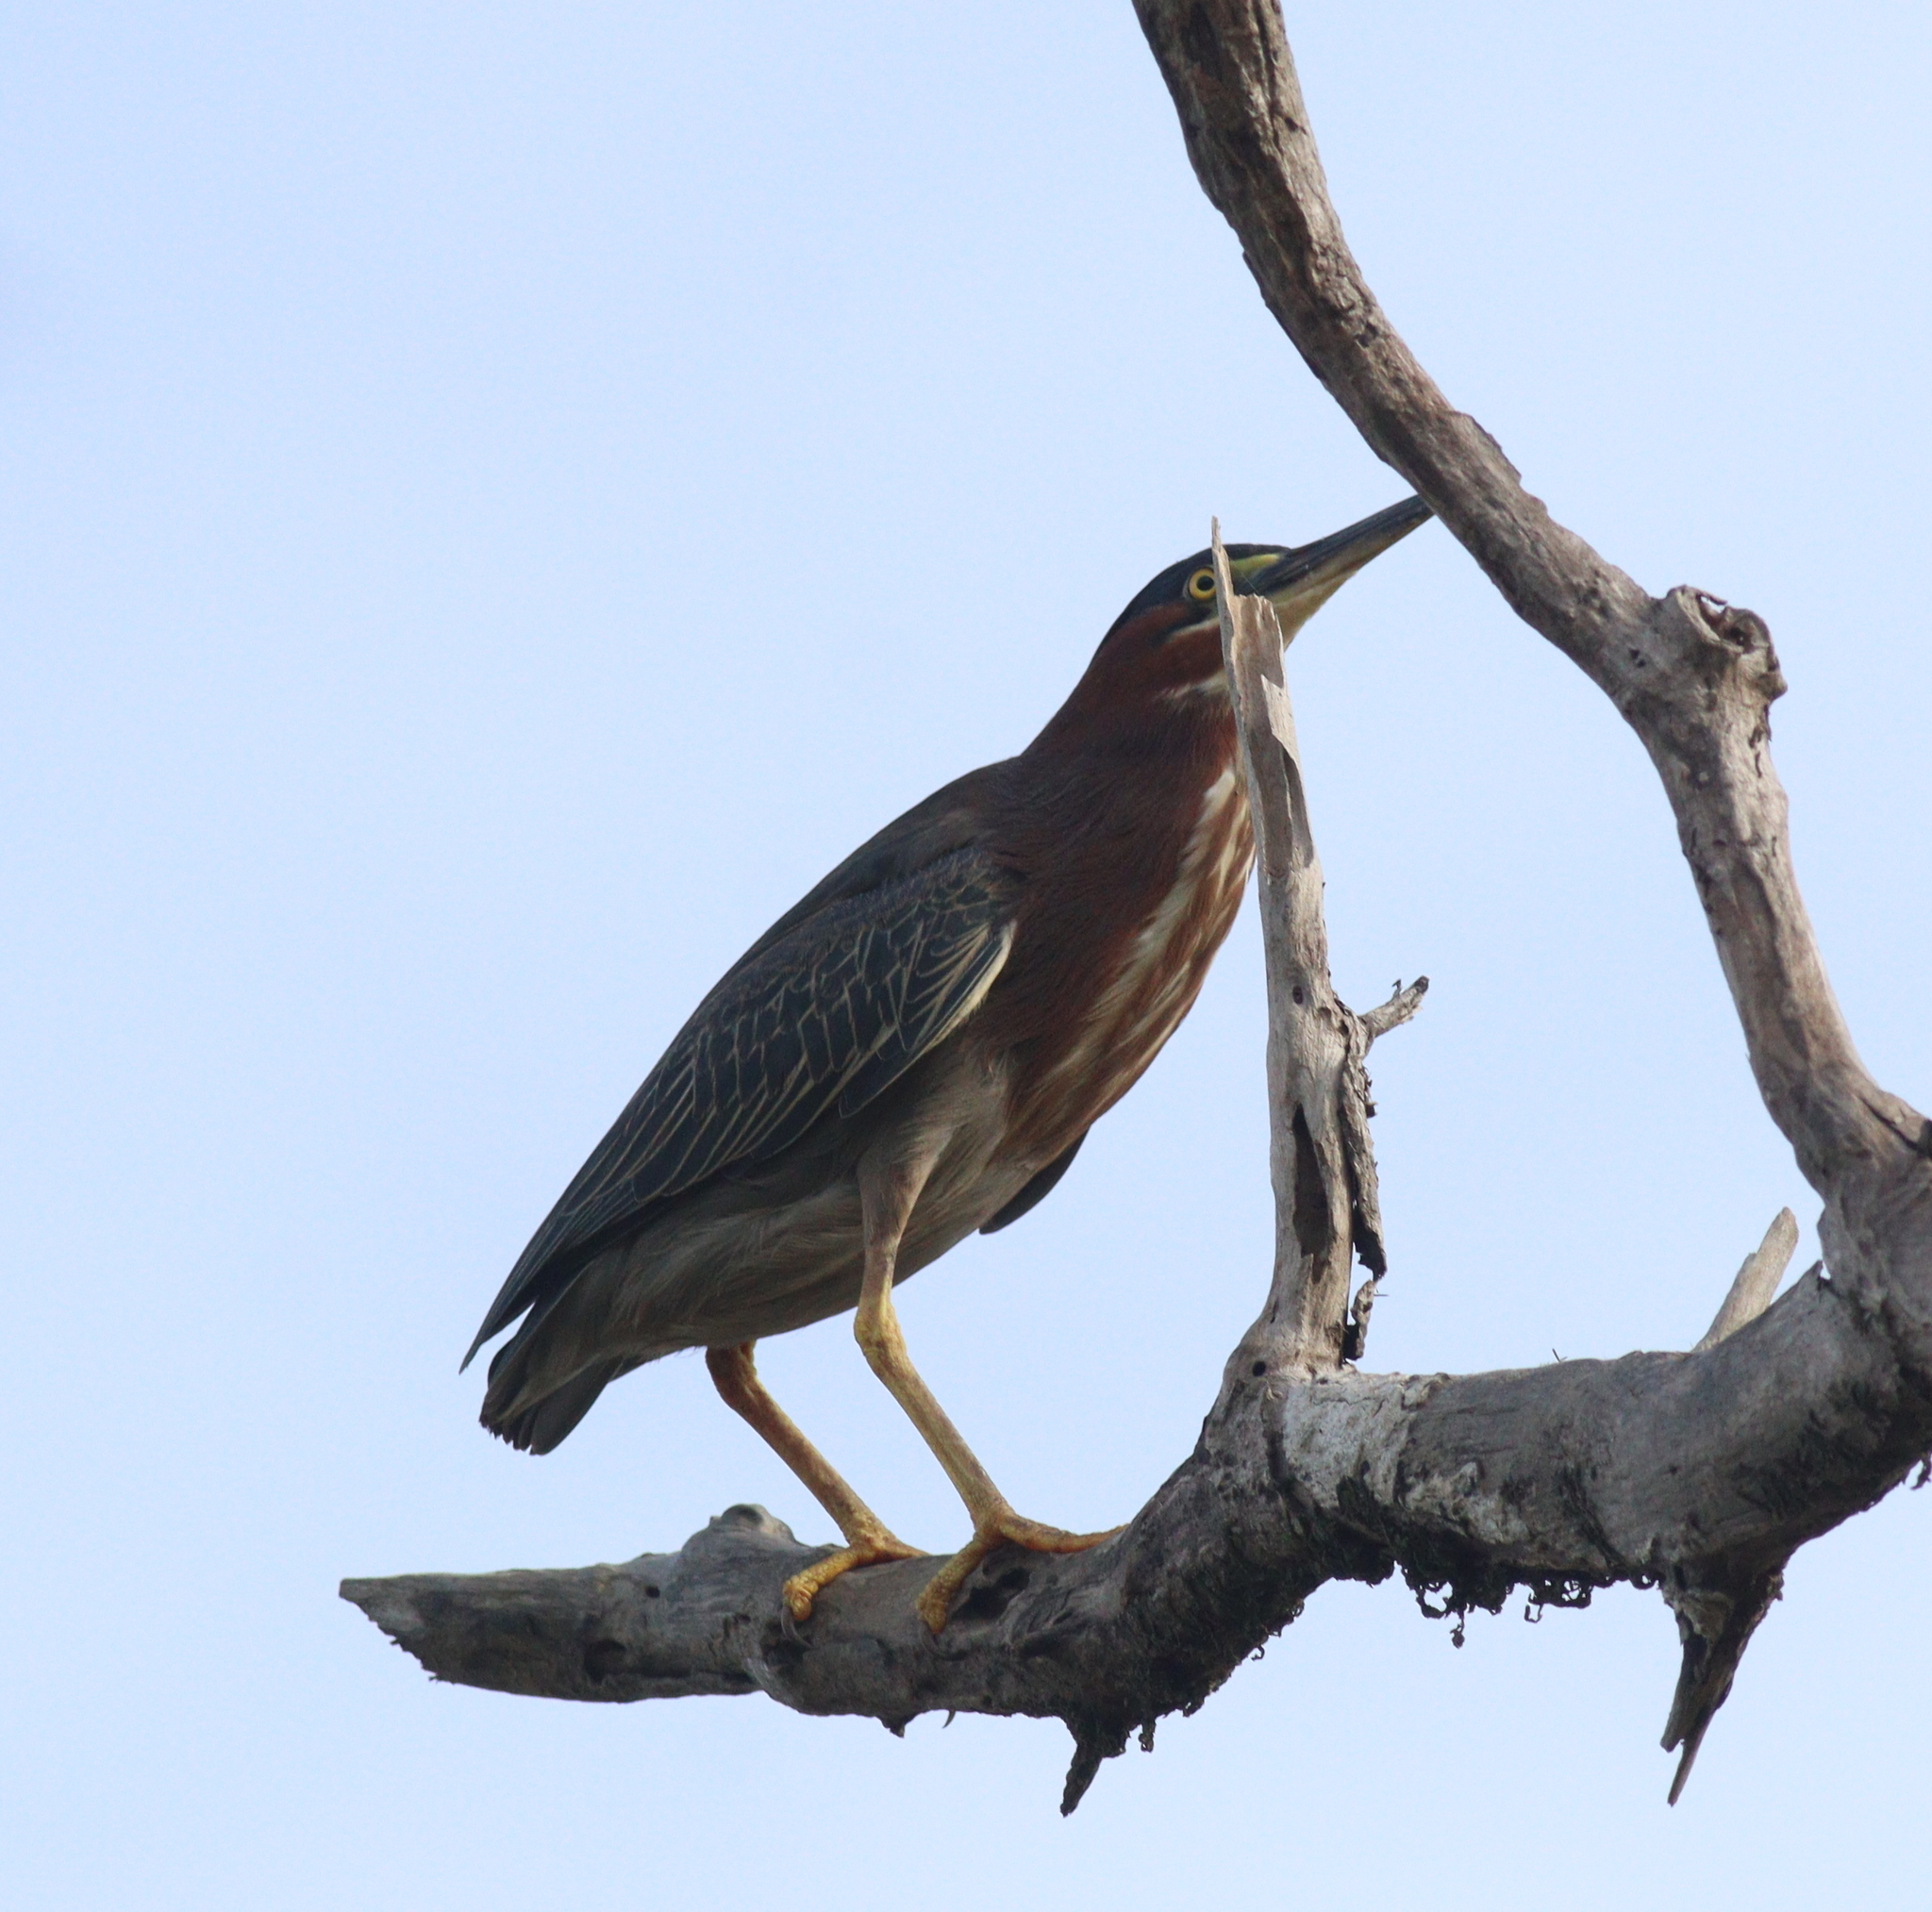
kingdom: Animalia
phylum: Chordata
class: Aves
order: Pelecaniformes
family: Ardeidae
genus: Butorides
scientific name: Butorides virescens
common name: Green heron
